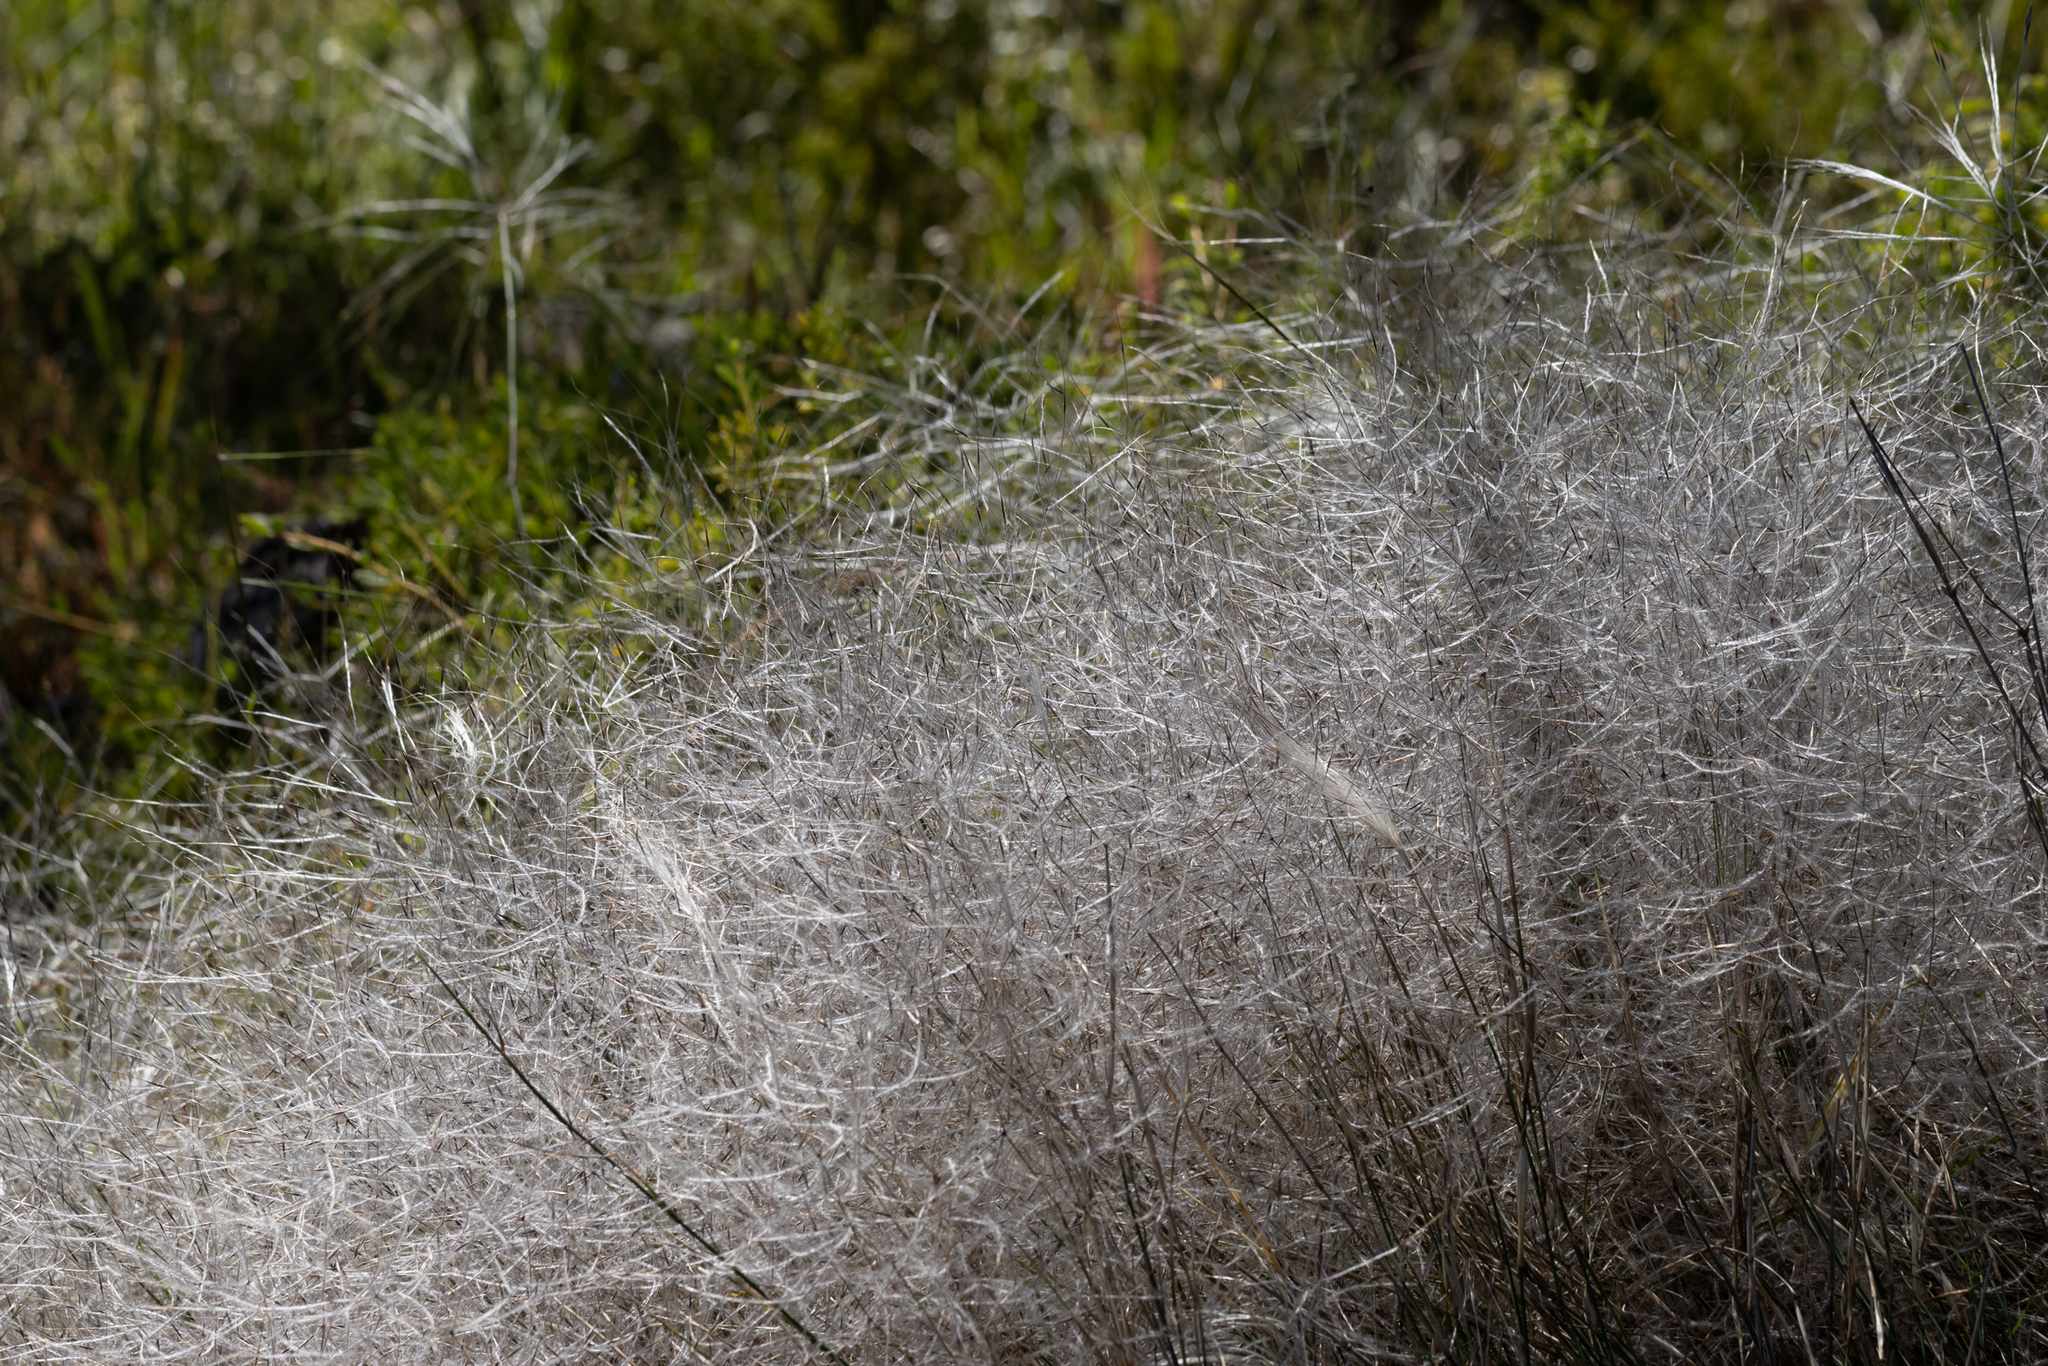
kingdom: Plantae
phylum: Tracheophyta
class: Liliopsida
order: Poales
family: Poaceae
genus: Austrostipa
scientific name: Austrostipa elegantissima
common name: Feather spear grass
